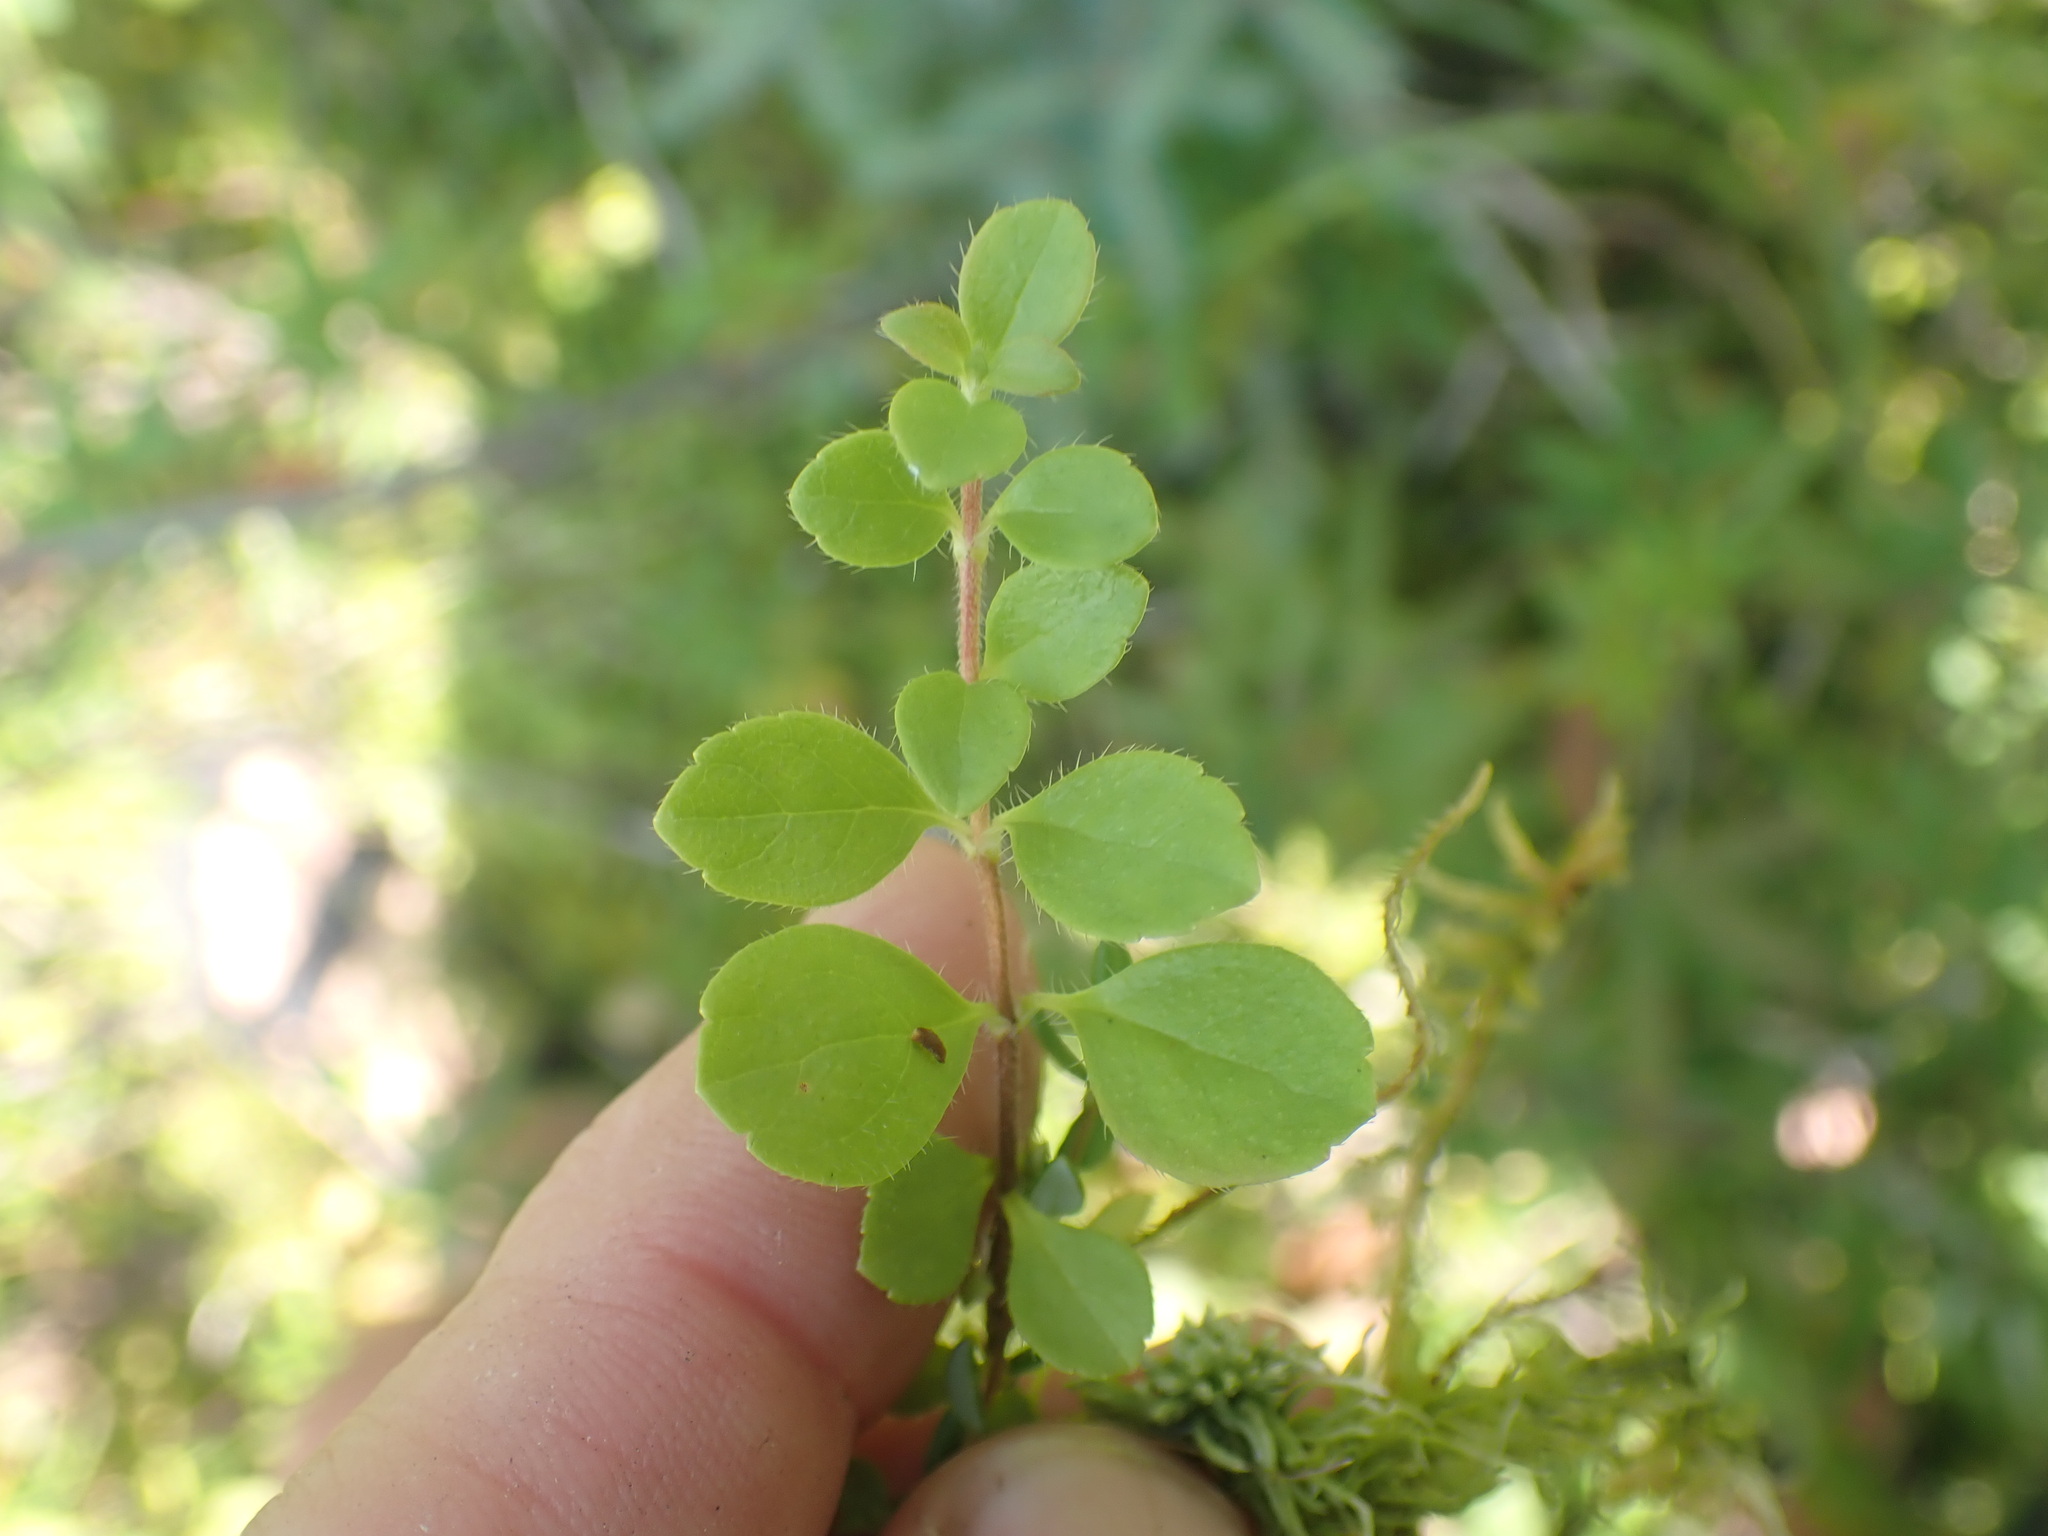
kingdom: Plantae
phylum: Tracheophyta
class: Magnoliopsida
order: Dipsacales
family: Caprifoliaceae
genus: Linnaea
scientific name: Linnaea borealis
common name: Twinflower
